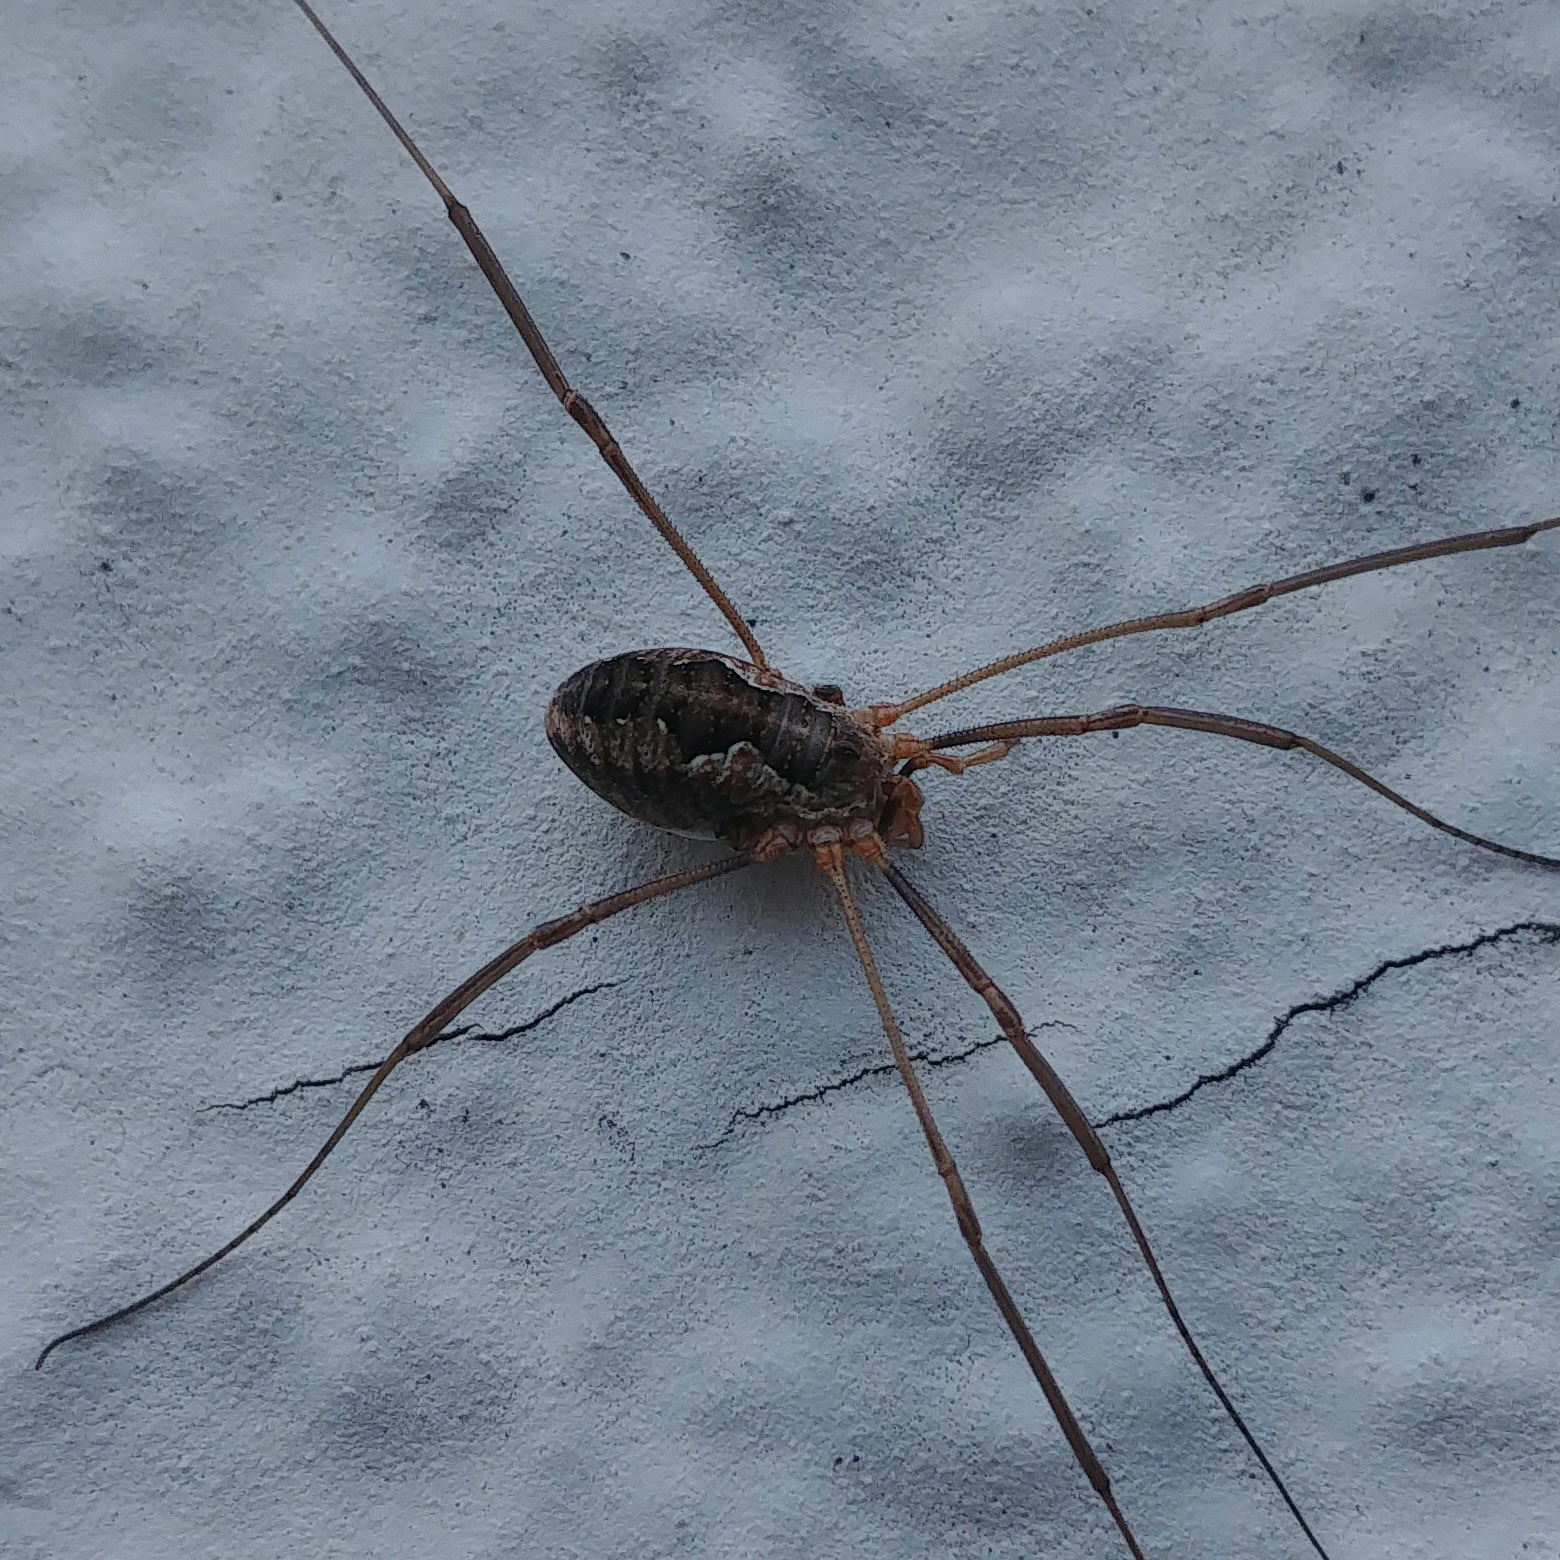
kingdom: Animalia
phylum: Arthropoda
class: Arachnida
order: Opiliones
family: Phalangiidae
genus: Phalangium
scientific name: Phalangium opilio
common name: Daddy longleg
